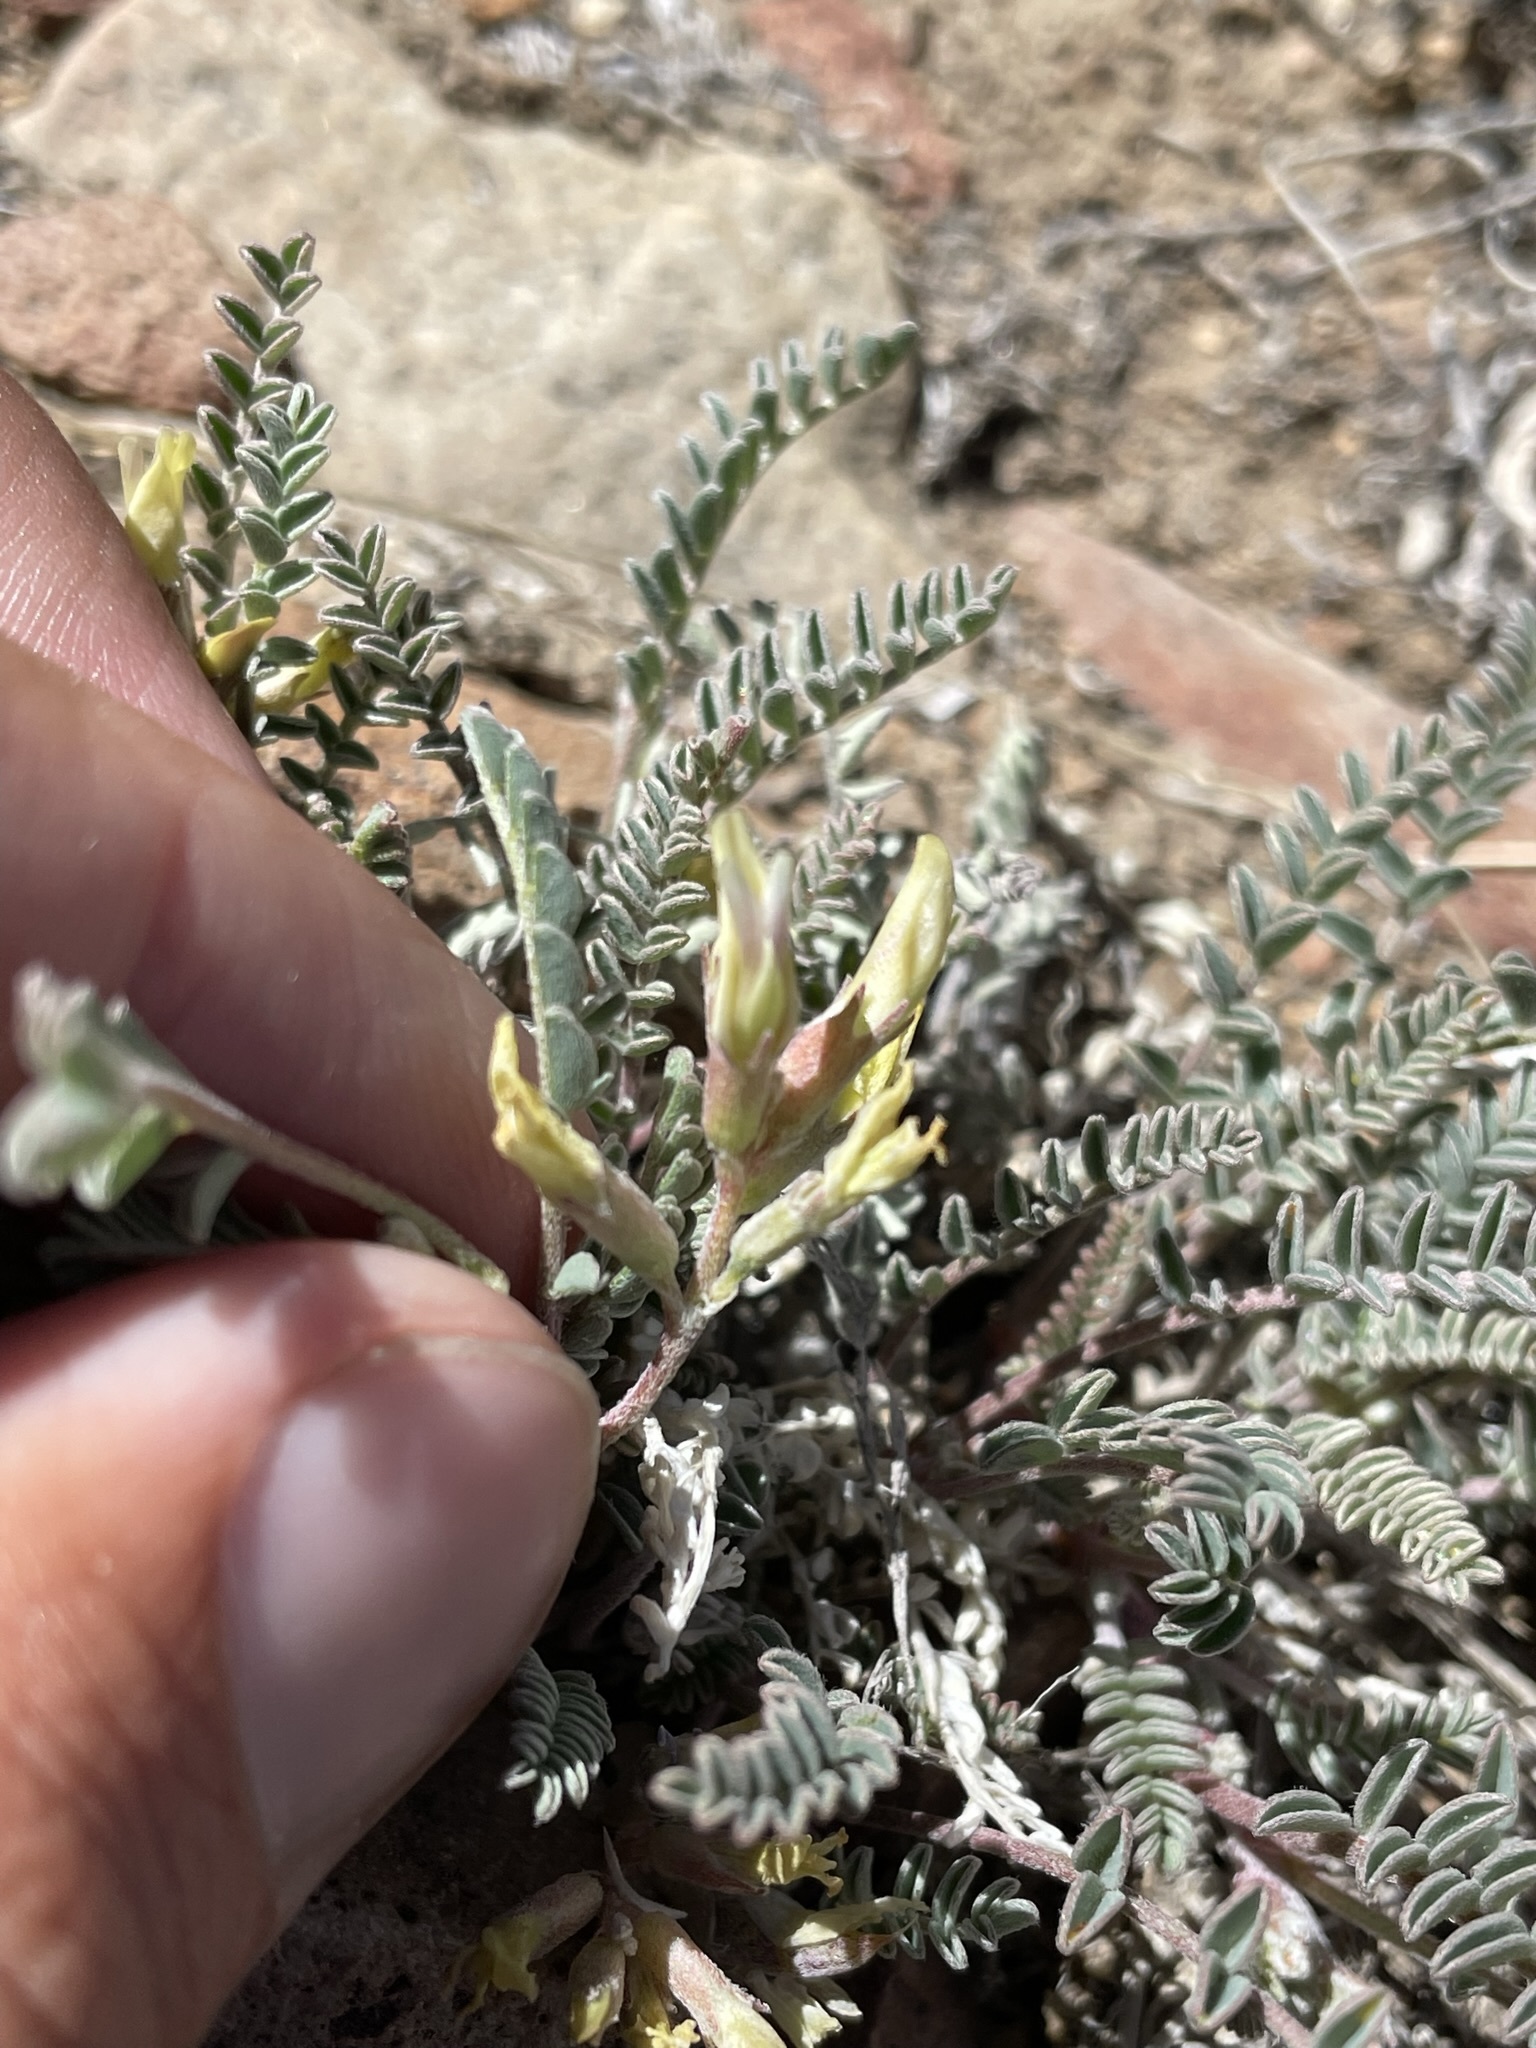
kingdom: Plantae
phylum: Tracheophyta
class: Magnoliopsida
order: Fabales
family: Fabaceae
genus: Astragalus
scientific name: Astragalus lentiginosus
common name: Freckled milkvetch
